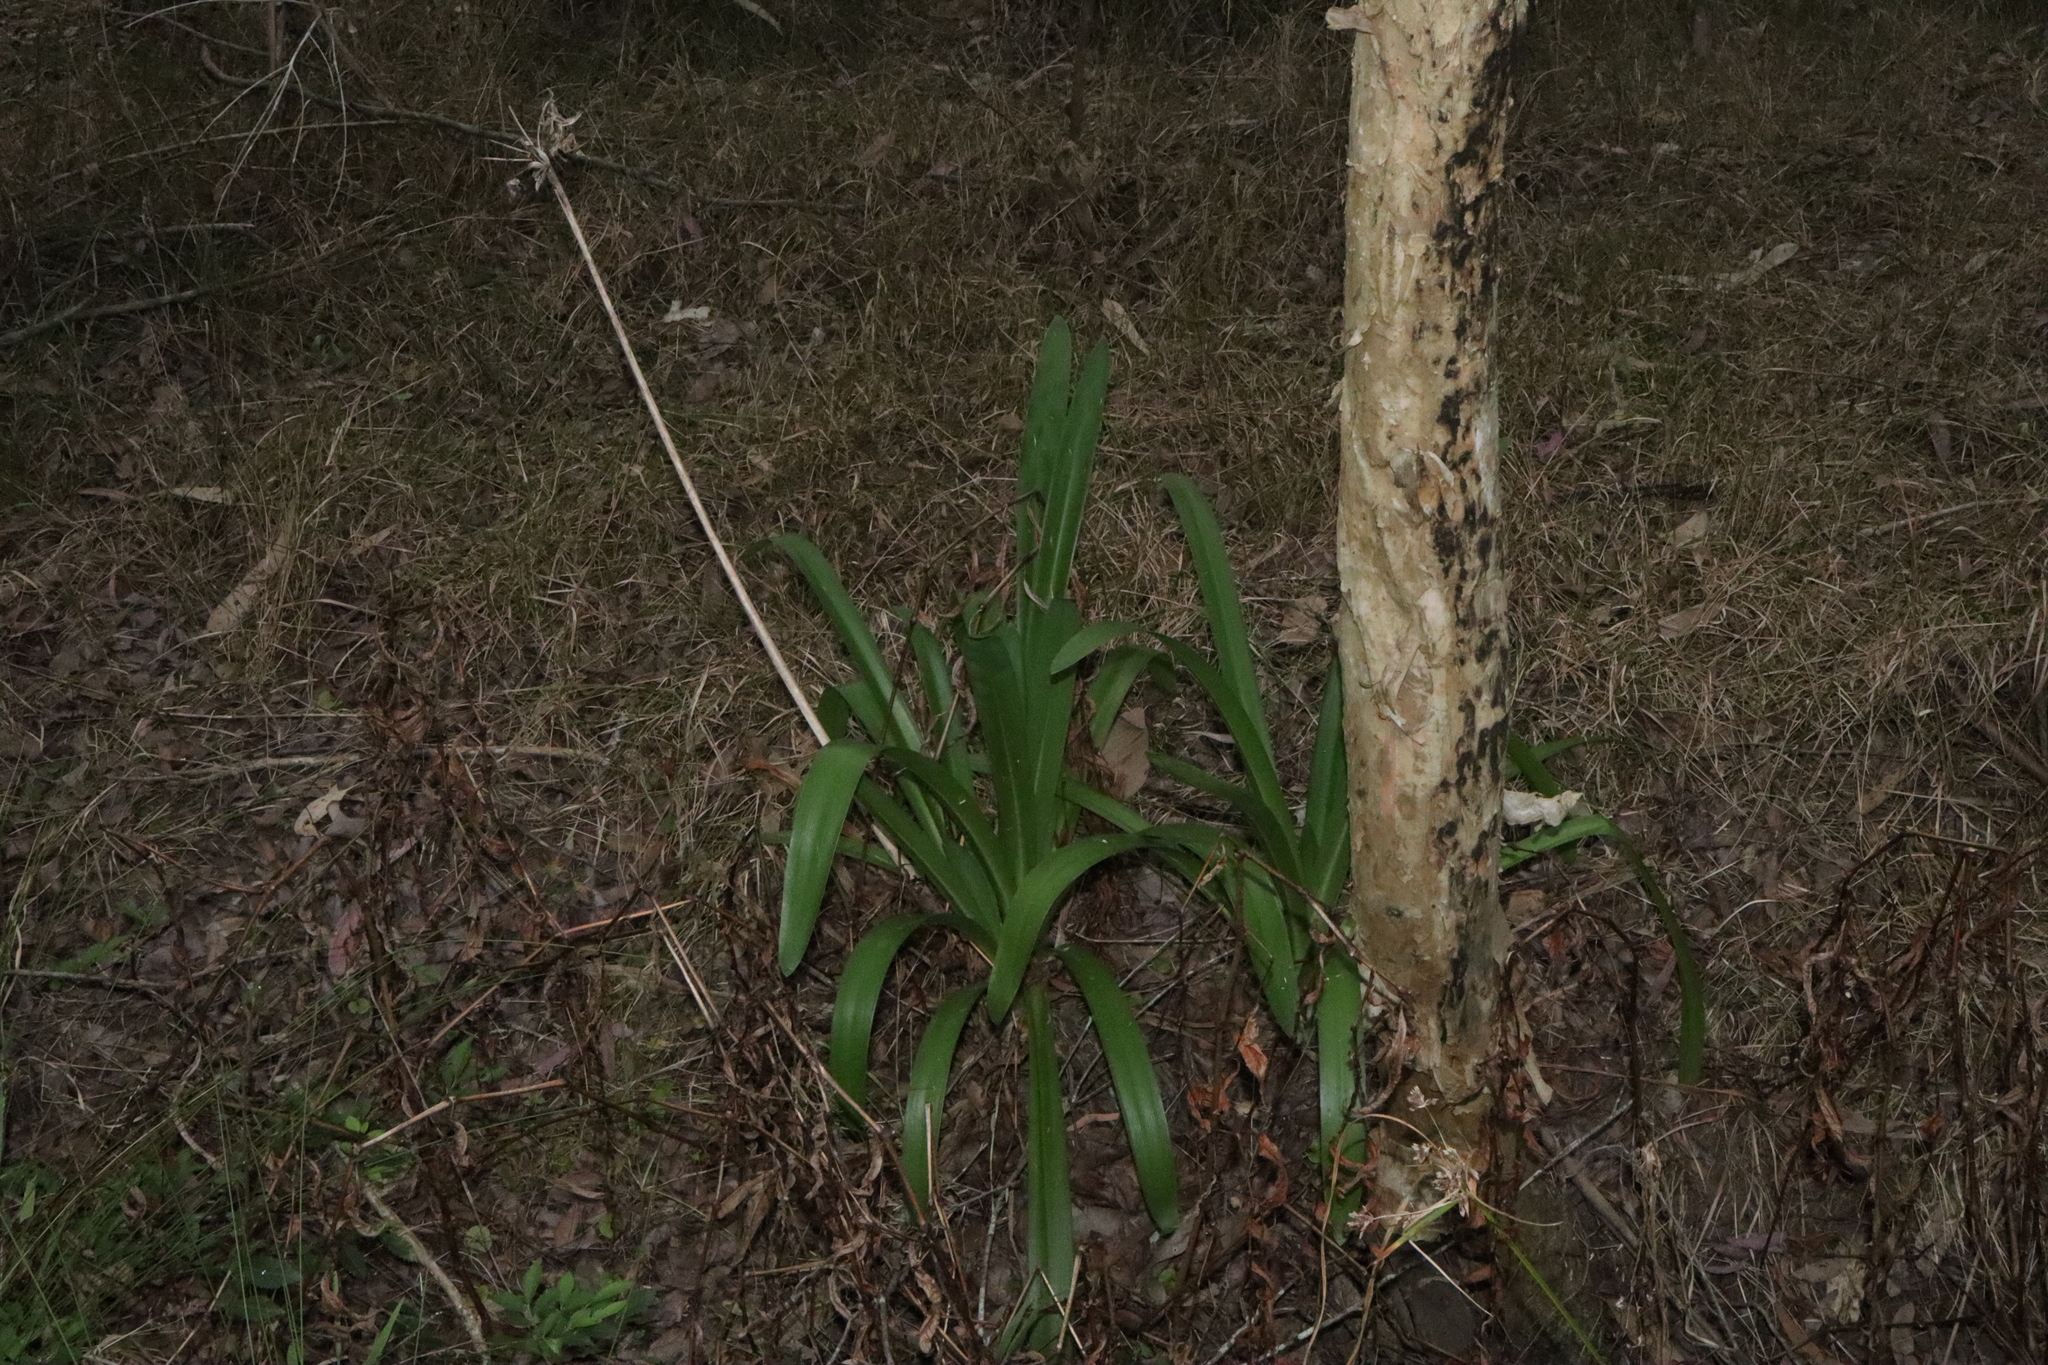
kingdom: Plantae
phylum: Tracheophyta
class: Liliopsida
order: Asparagales
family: Amaryllidaceae
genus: Agapanthus
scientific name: Agapanthus praecox
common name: African-lily
